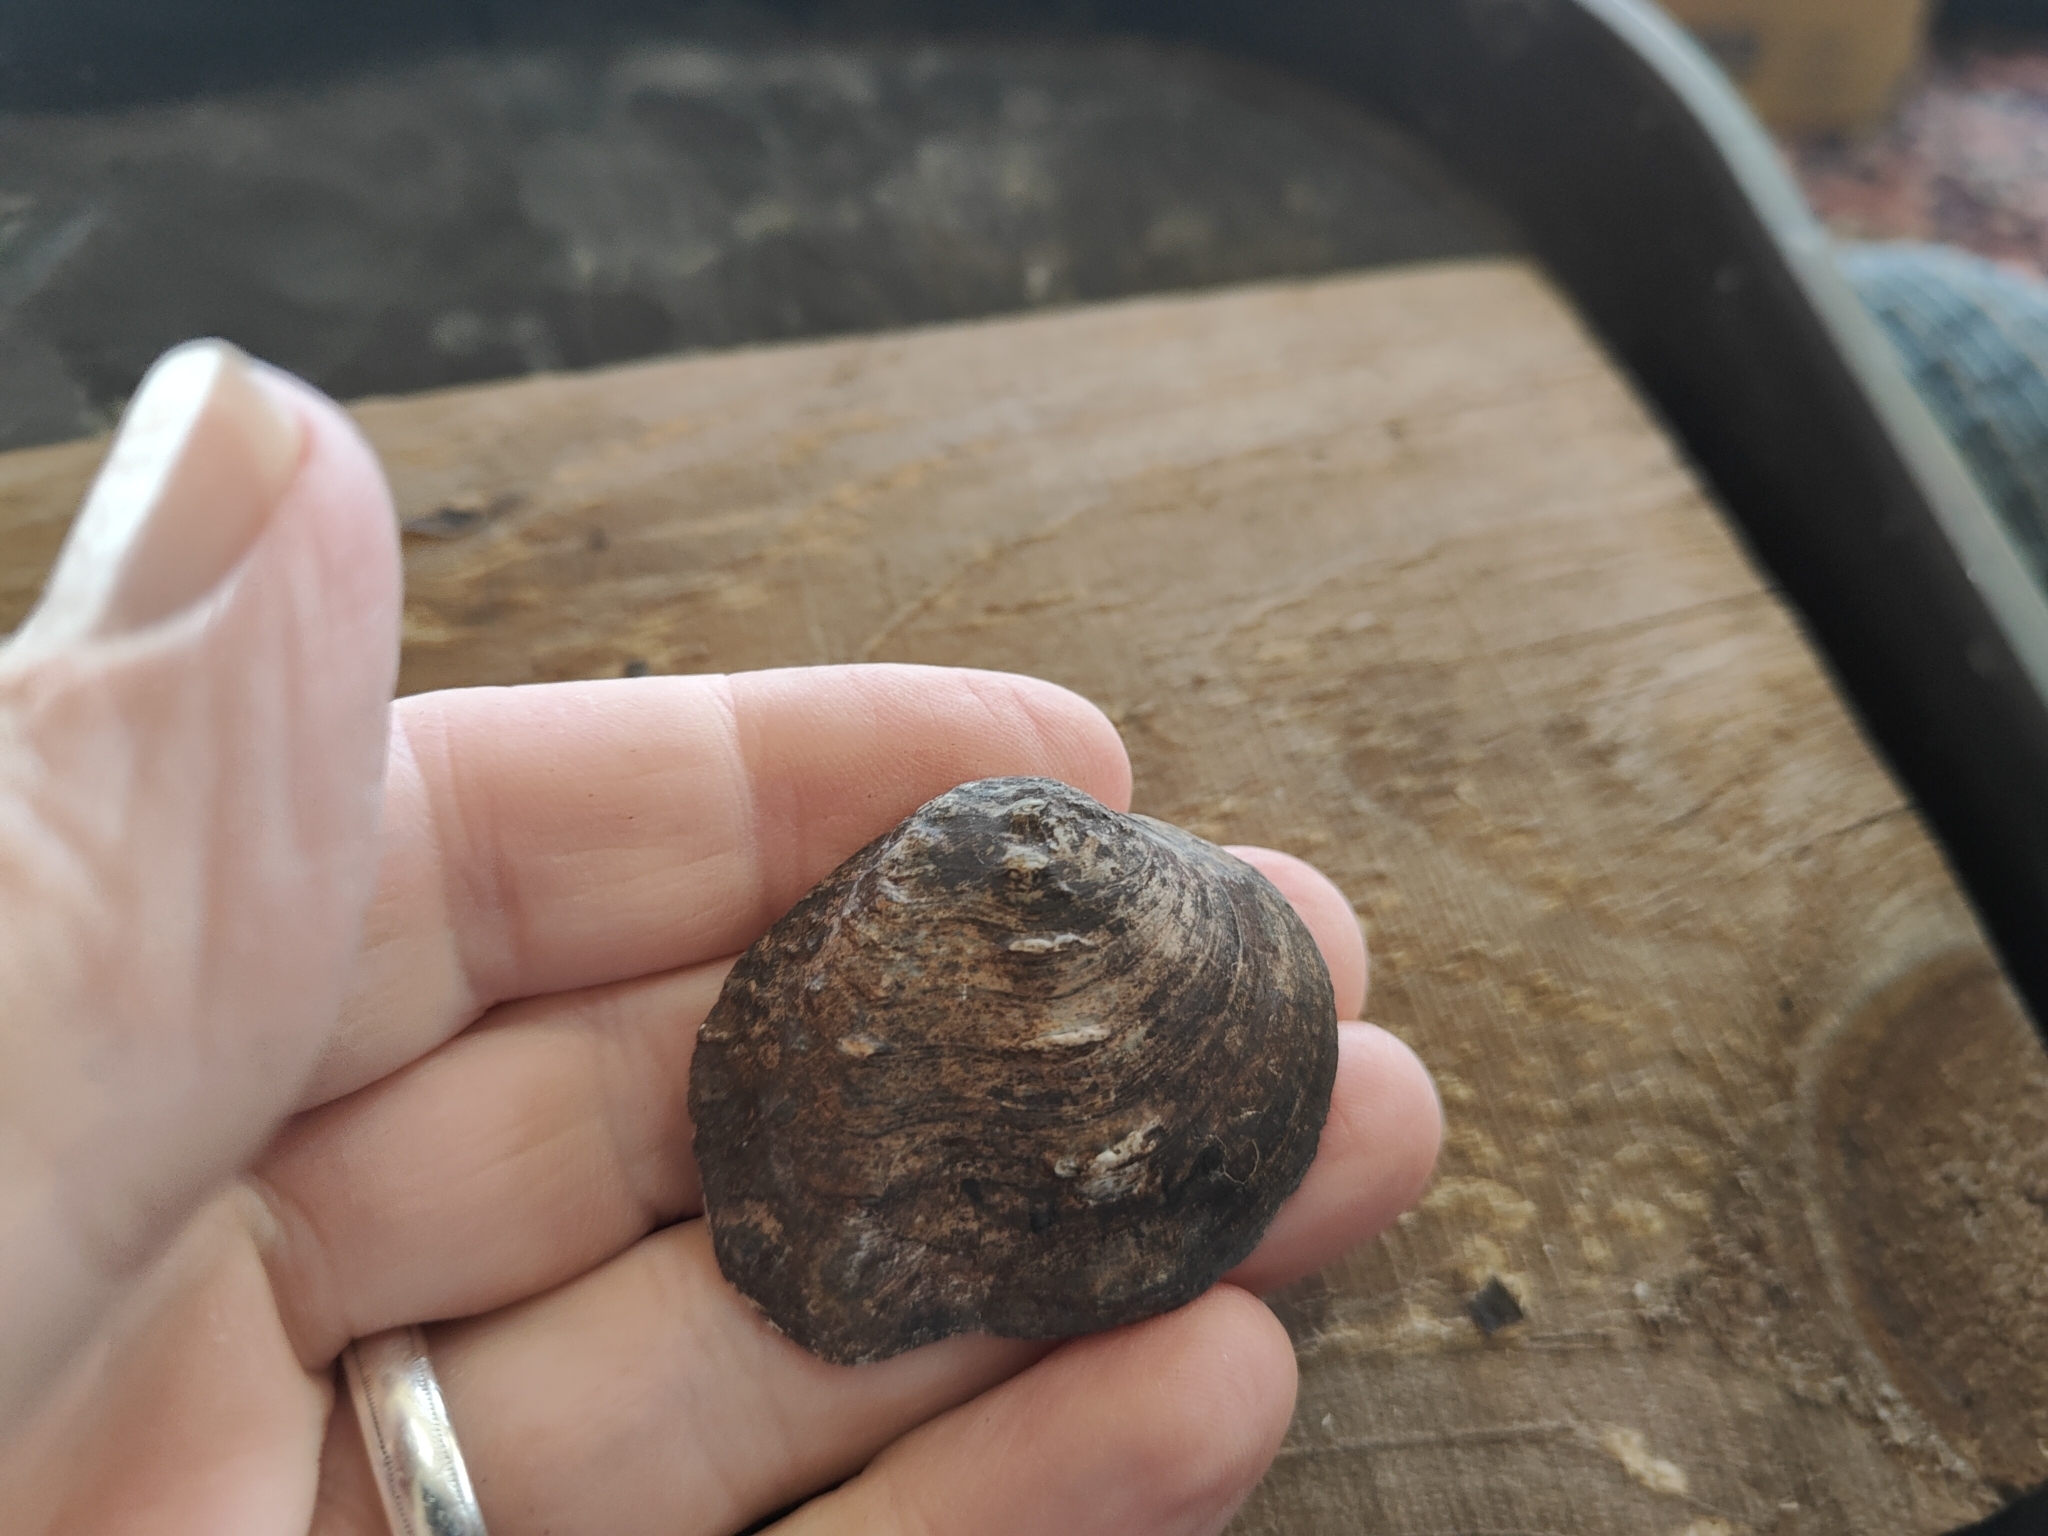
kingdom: Animalia
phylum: Mollusca
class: Bivalvia
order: Unionida
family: Unionidae
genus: Quadrula
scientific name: Quadrula quadrula
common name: Mapleleaf
